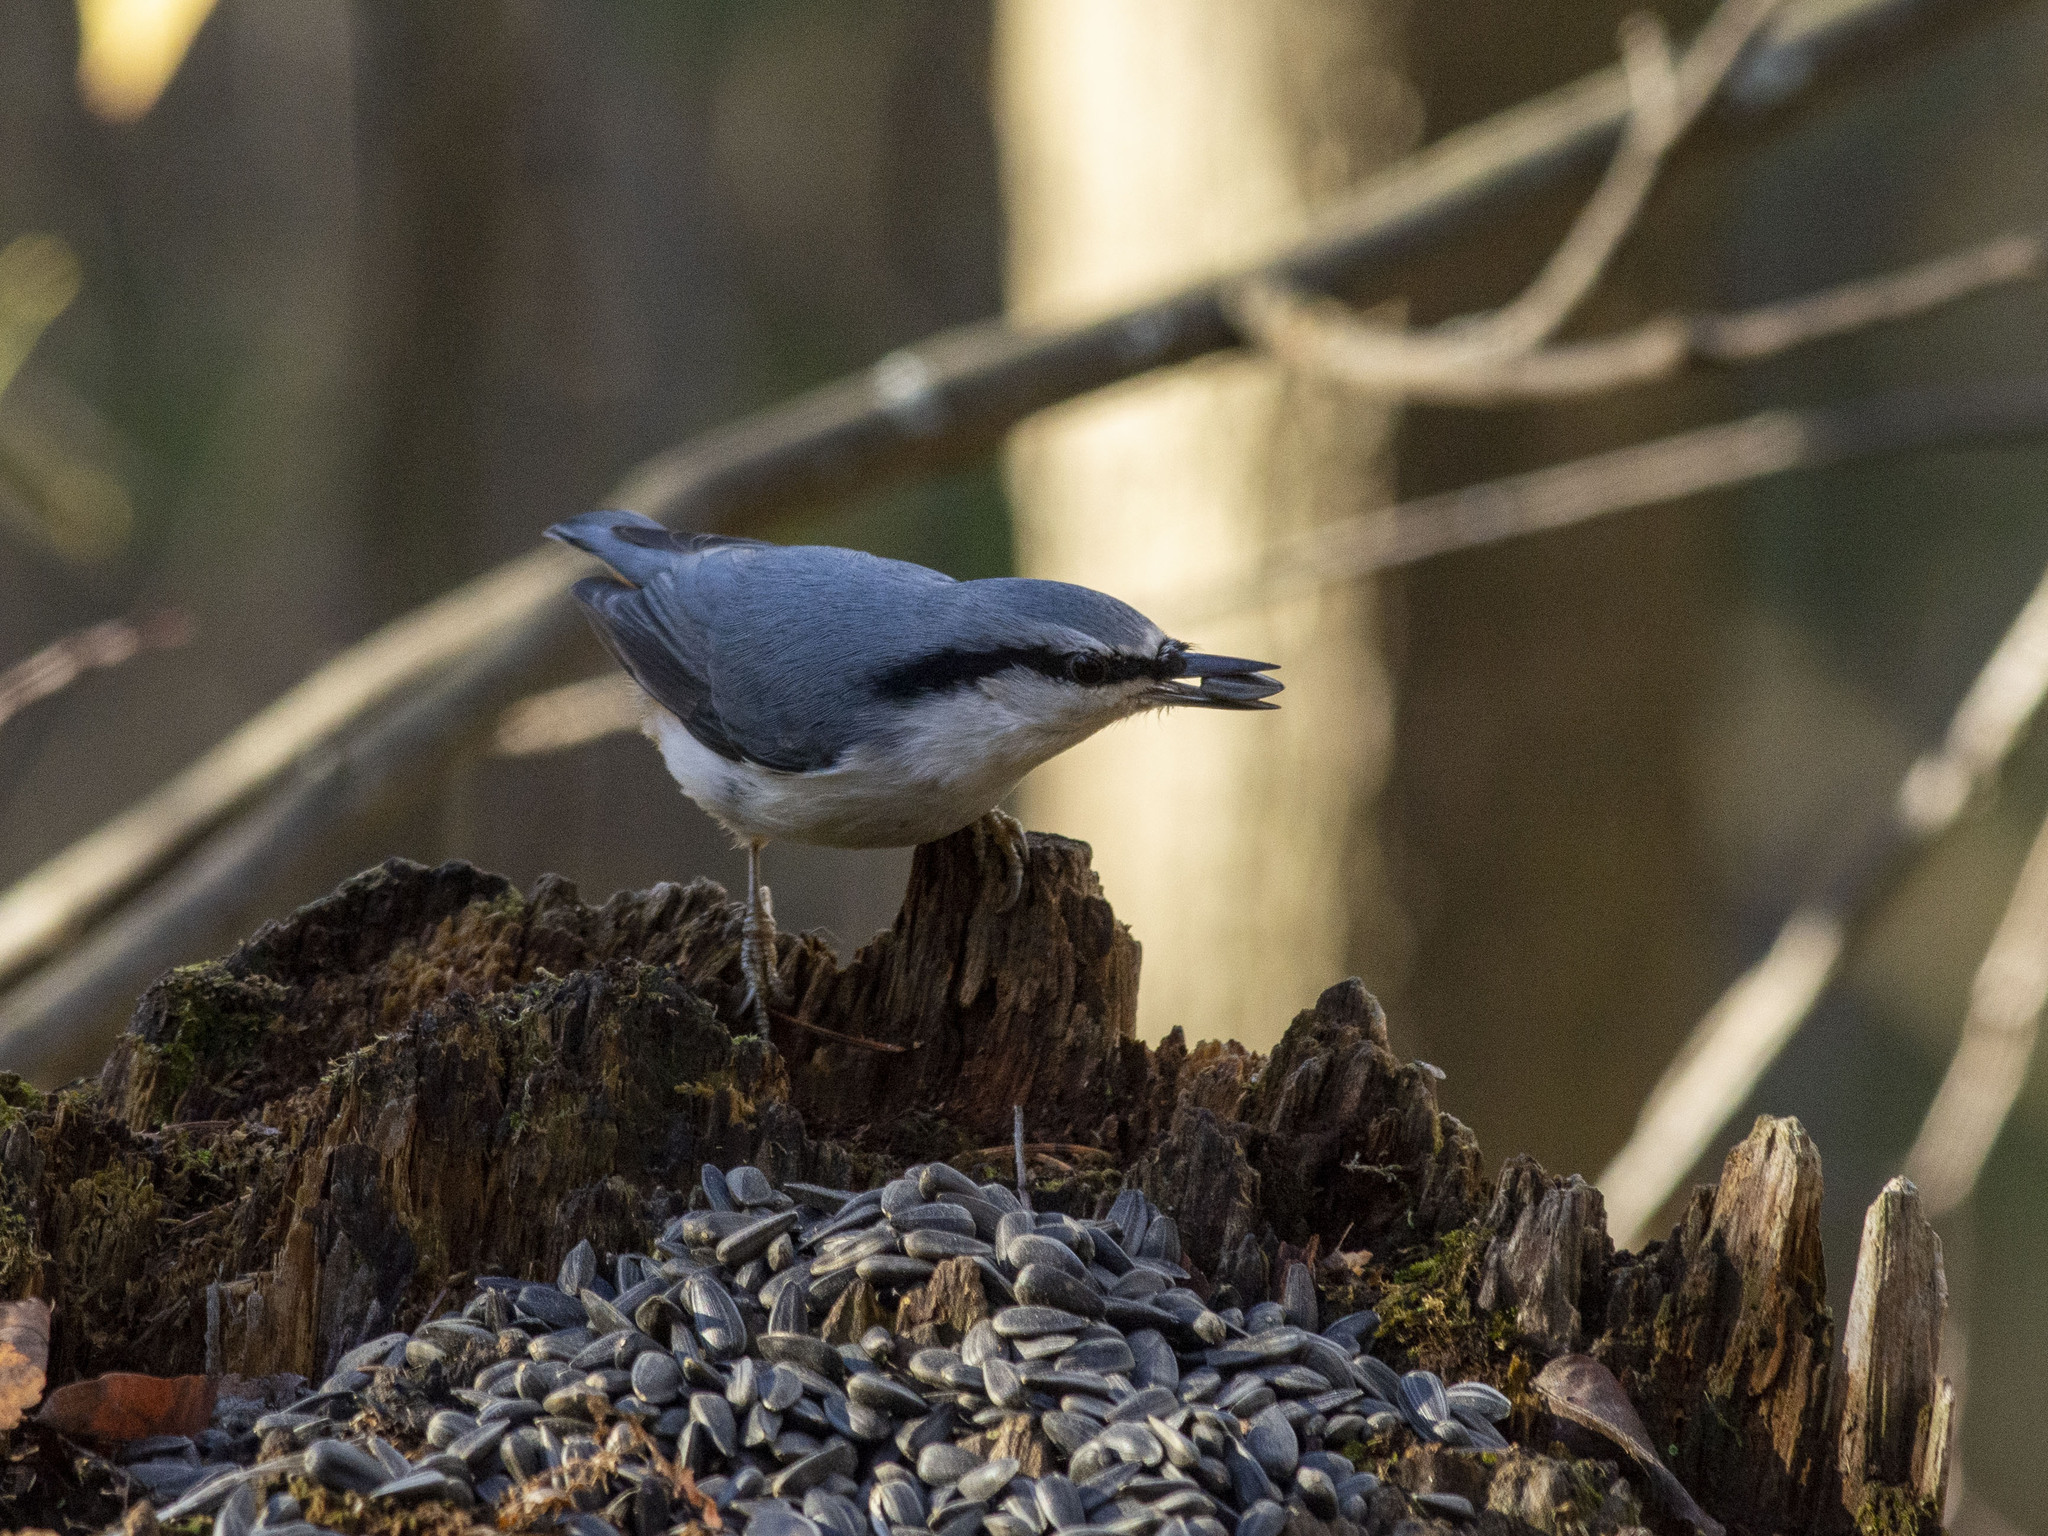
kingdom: Animalia
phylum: Chordata
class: Aves
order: Passeriformes
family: Sittidae
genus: Sitta
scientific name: Sitta europaea
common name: Eurasian nuthatch
